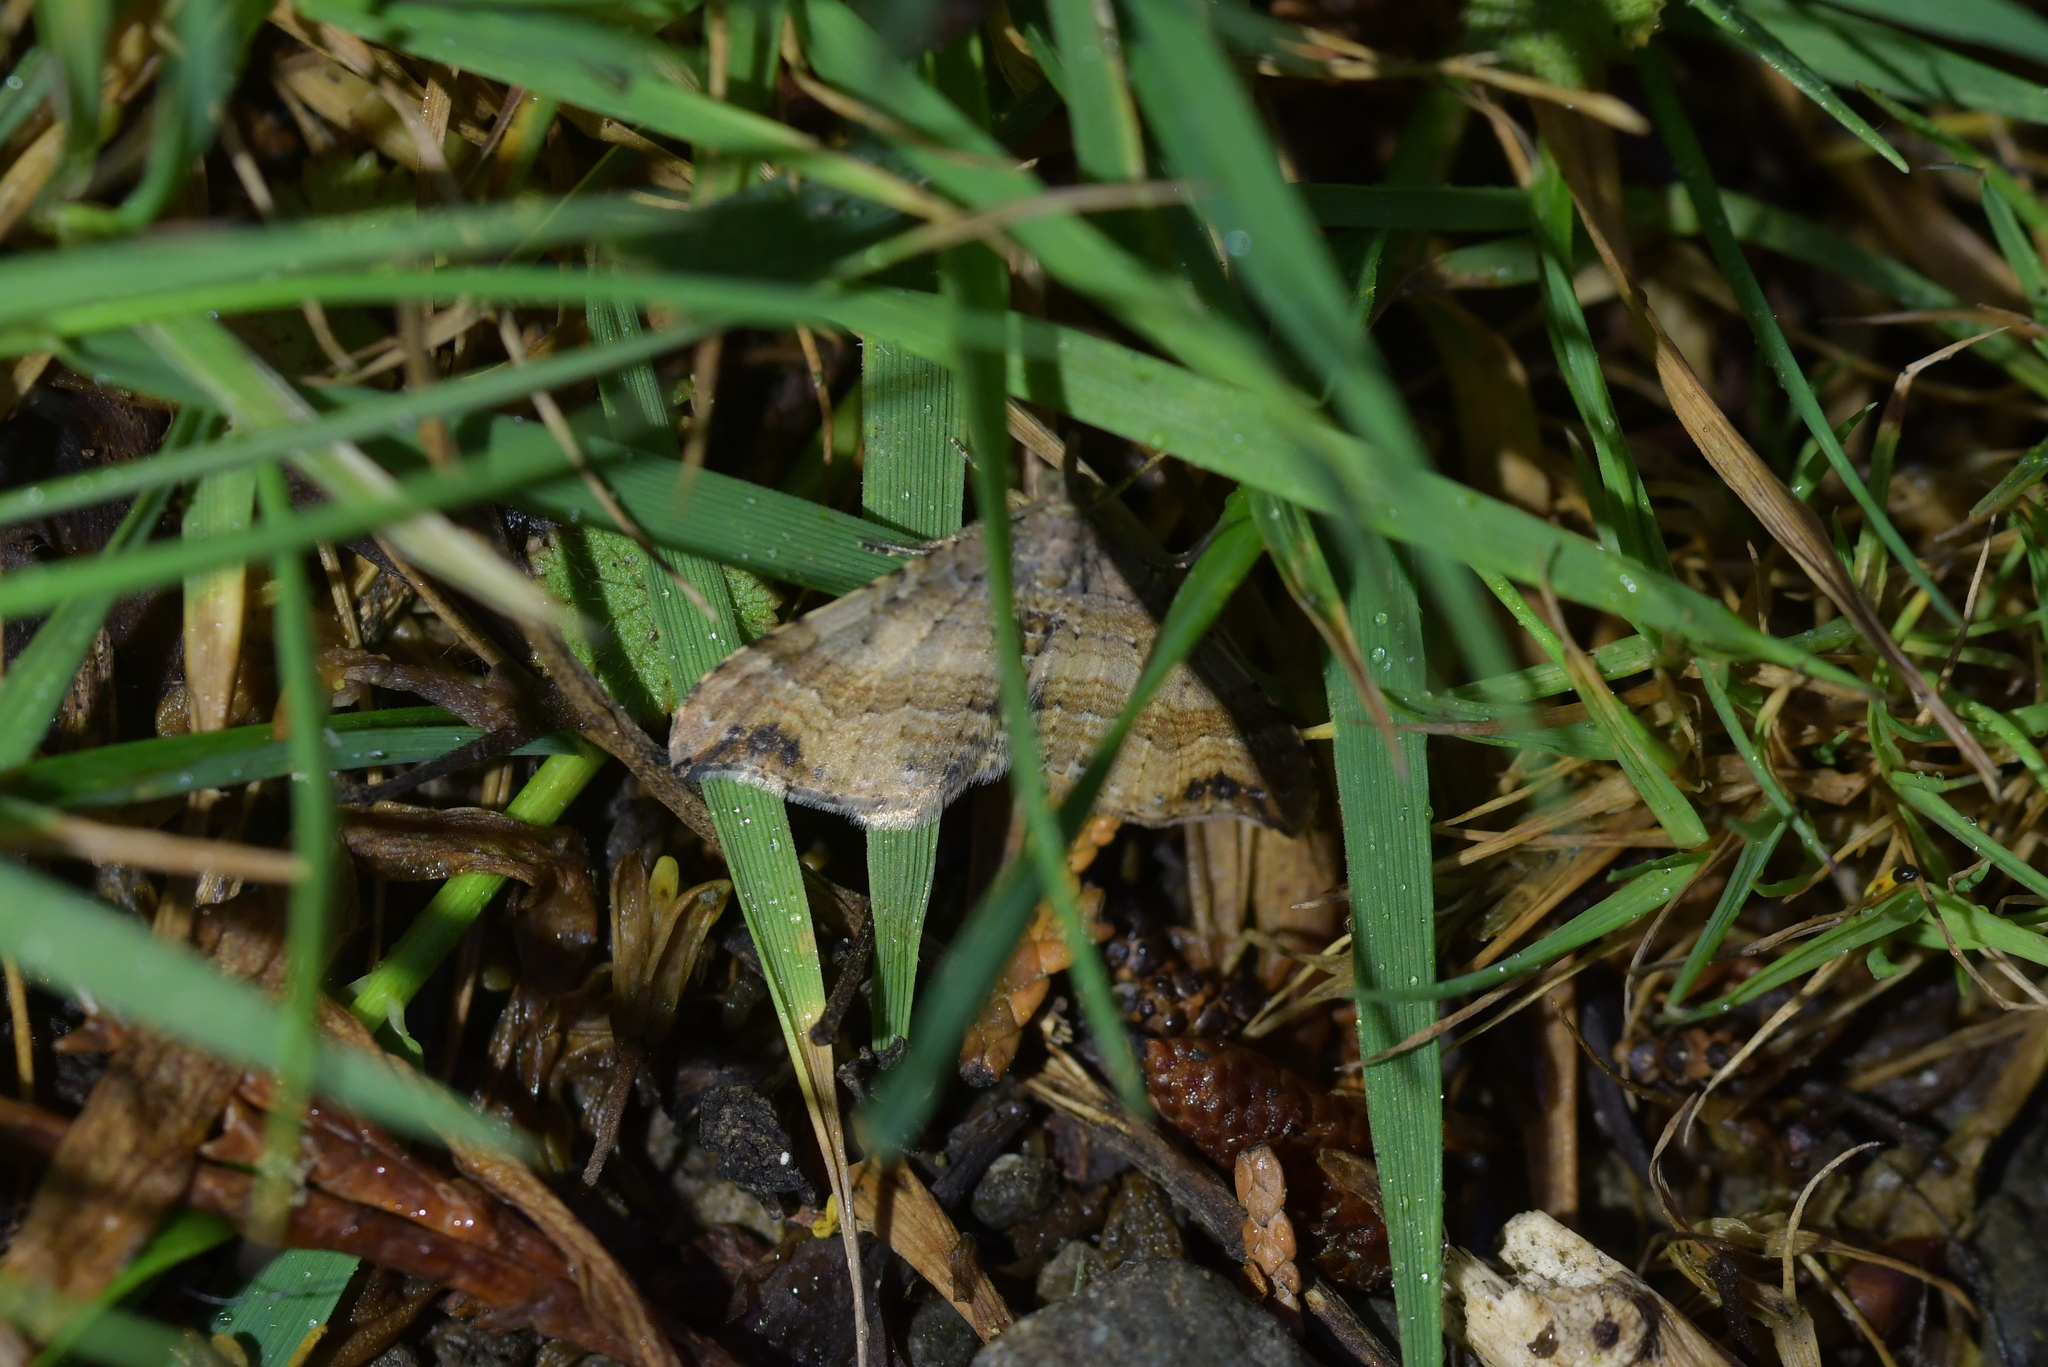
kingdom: Animalia
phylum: Arthropoda
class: Insecta
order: Lepidoptera
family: Geometridae
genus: Homodotis
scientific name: Homodotis megaspilata
